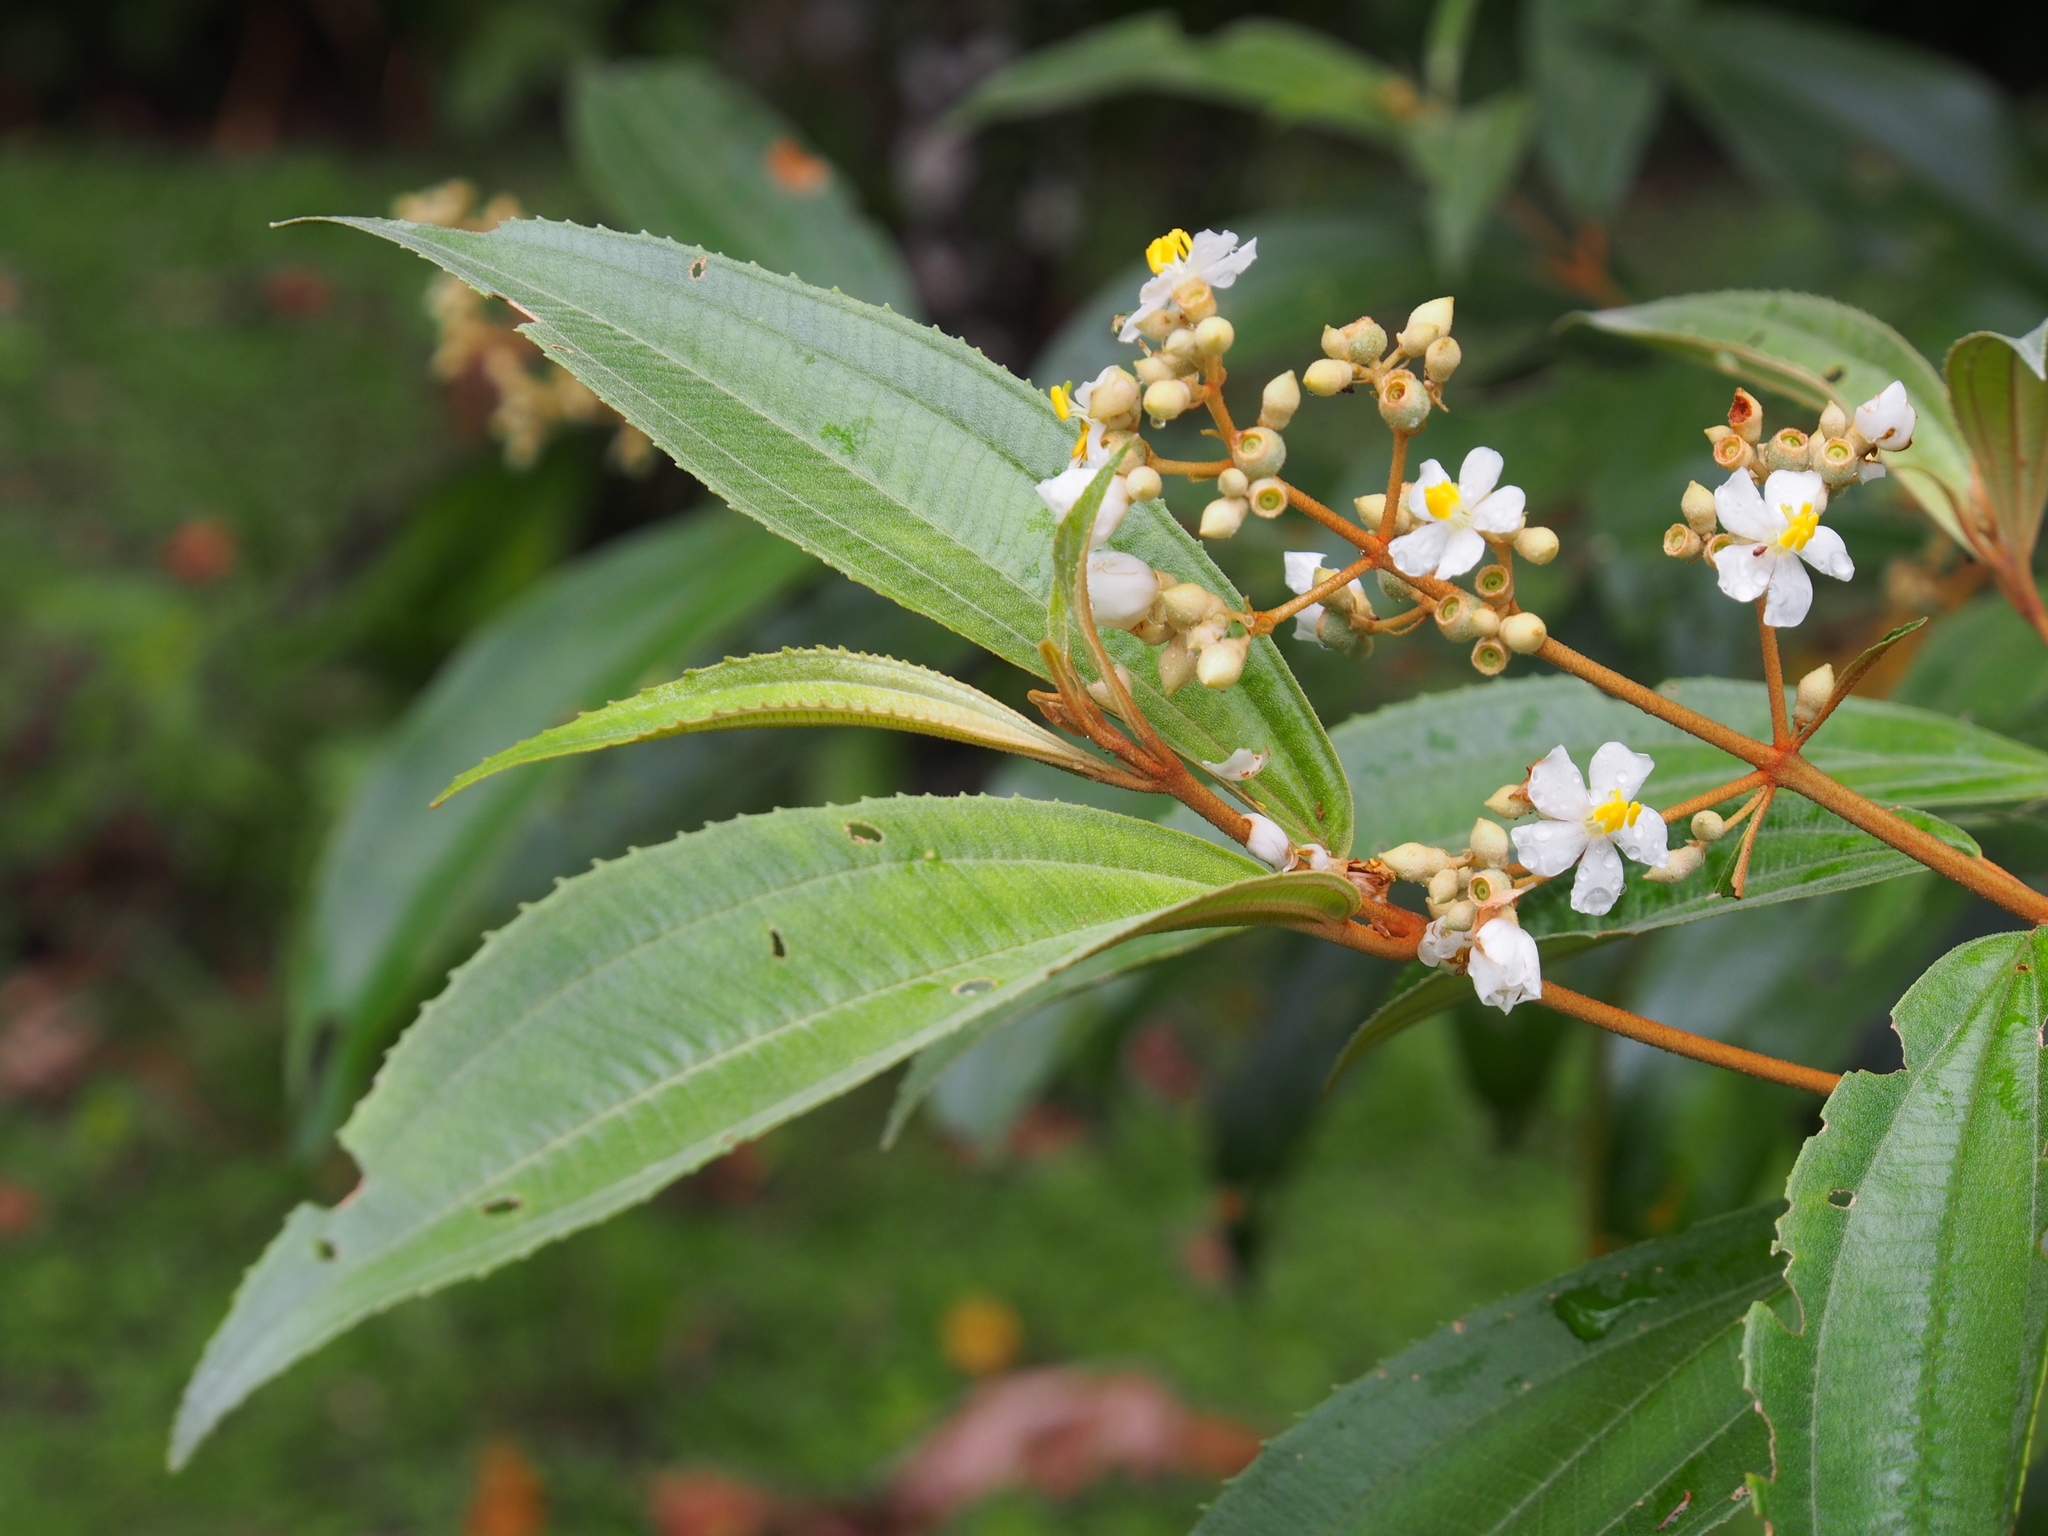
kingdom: Plantae
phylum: Tracheophyta
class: Magnoliopsida
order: Myrtales
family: Melastomataceae
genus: Miconia
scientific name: Miconia xalapensis
